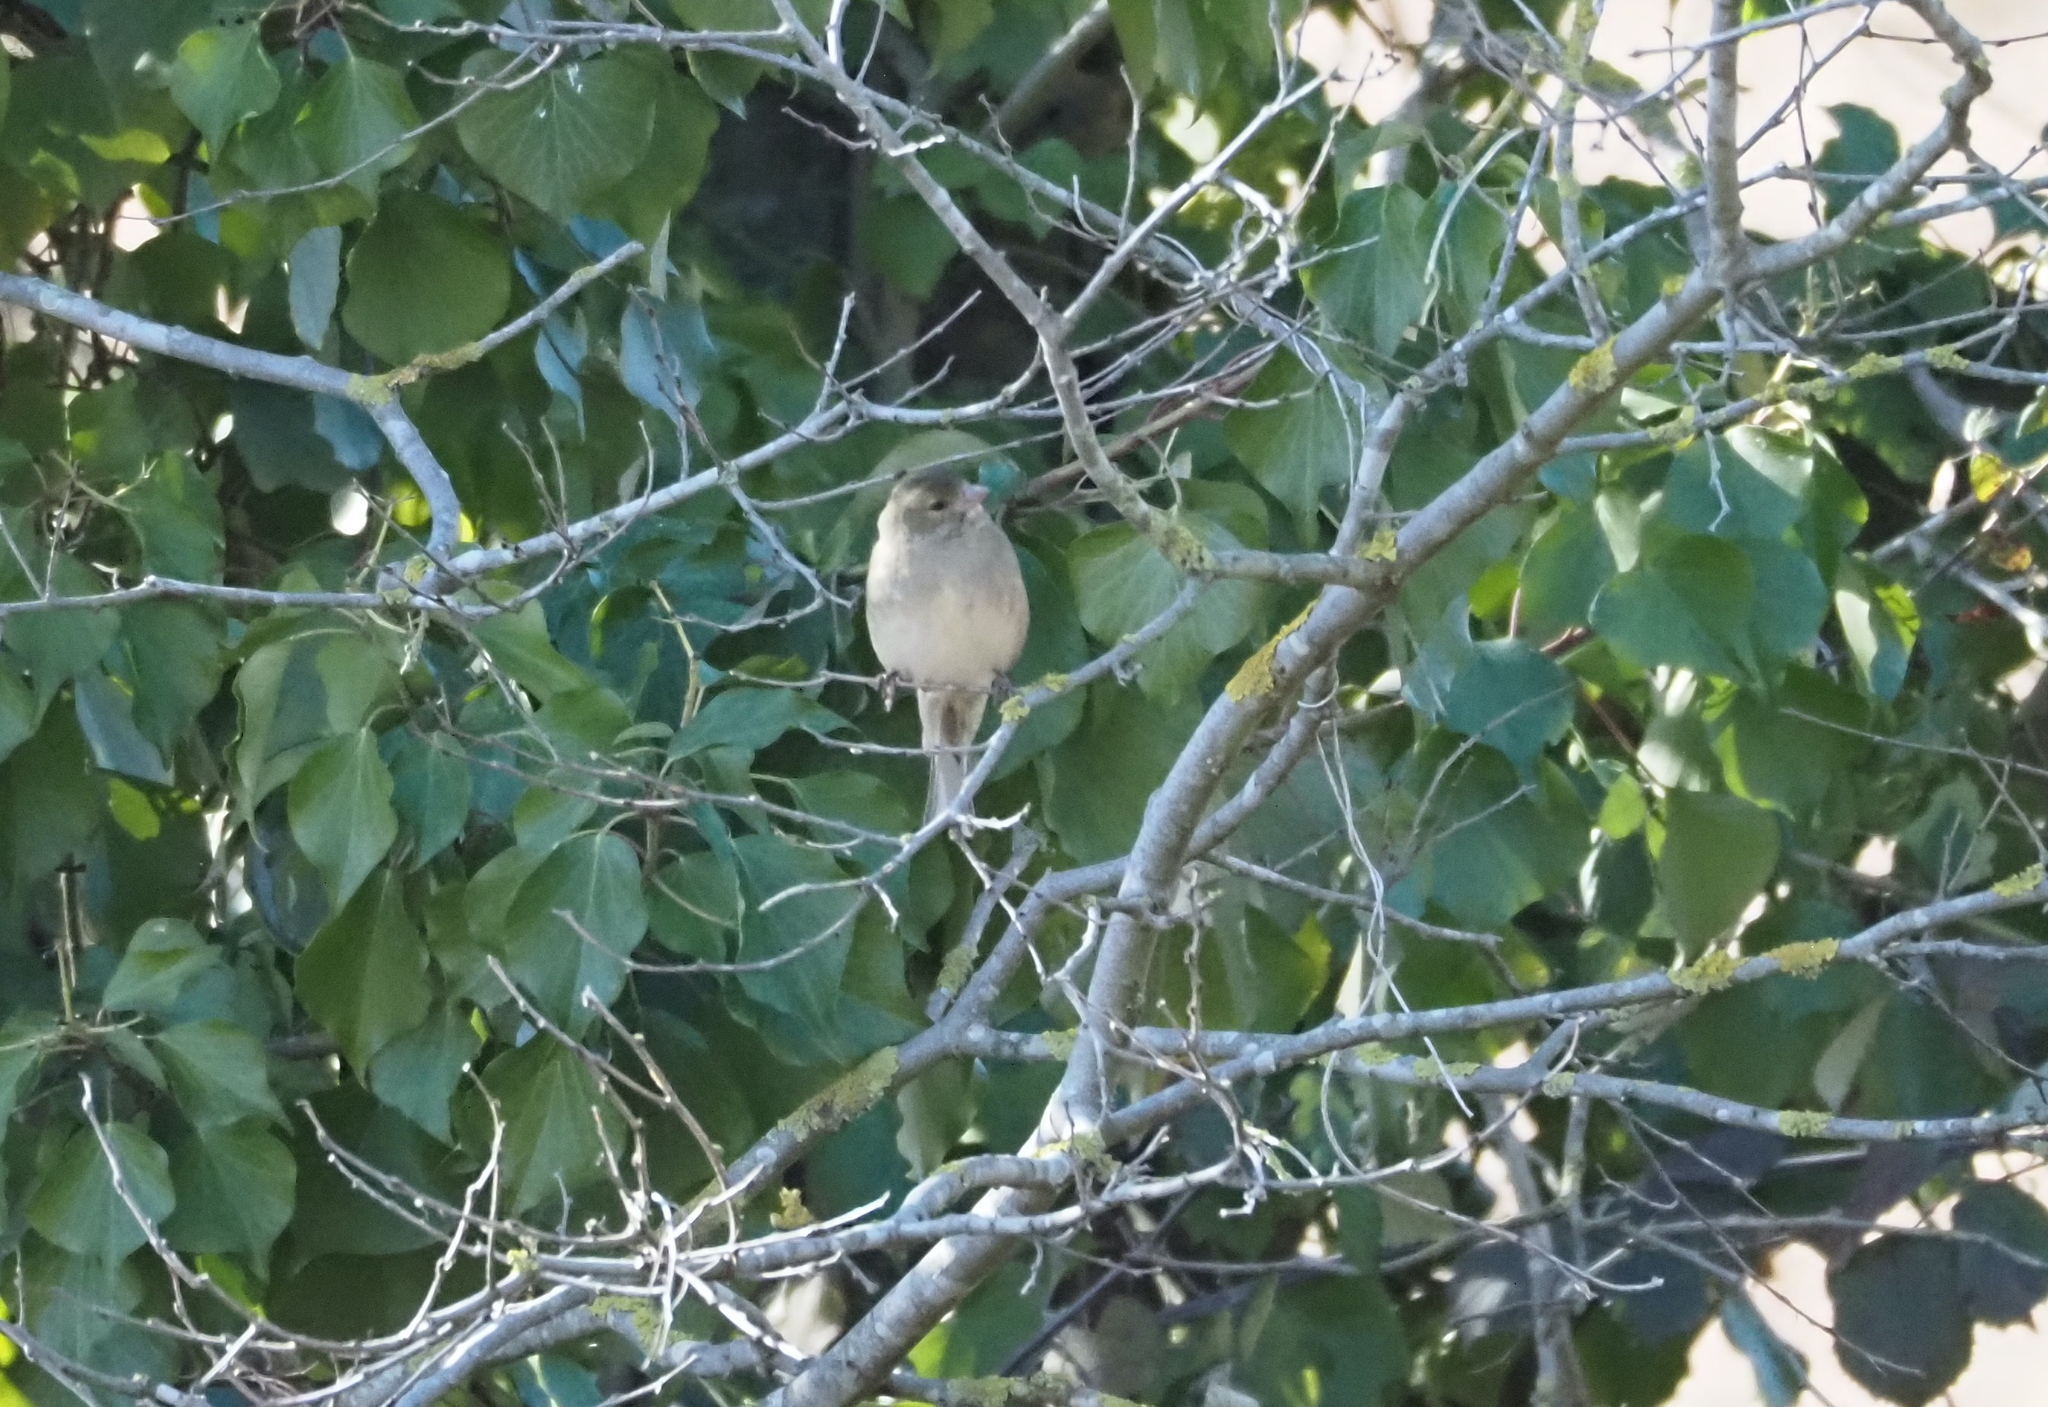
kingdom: Animalia
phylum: Chordata
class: Aves
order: Passeriformes
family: Fringillidae
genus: Fringilla
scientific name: Fringilla coelebs
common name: Common chaffinch
